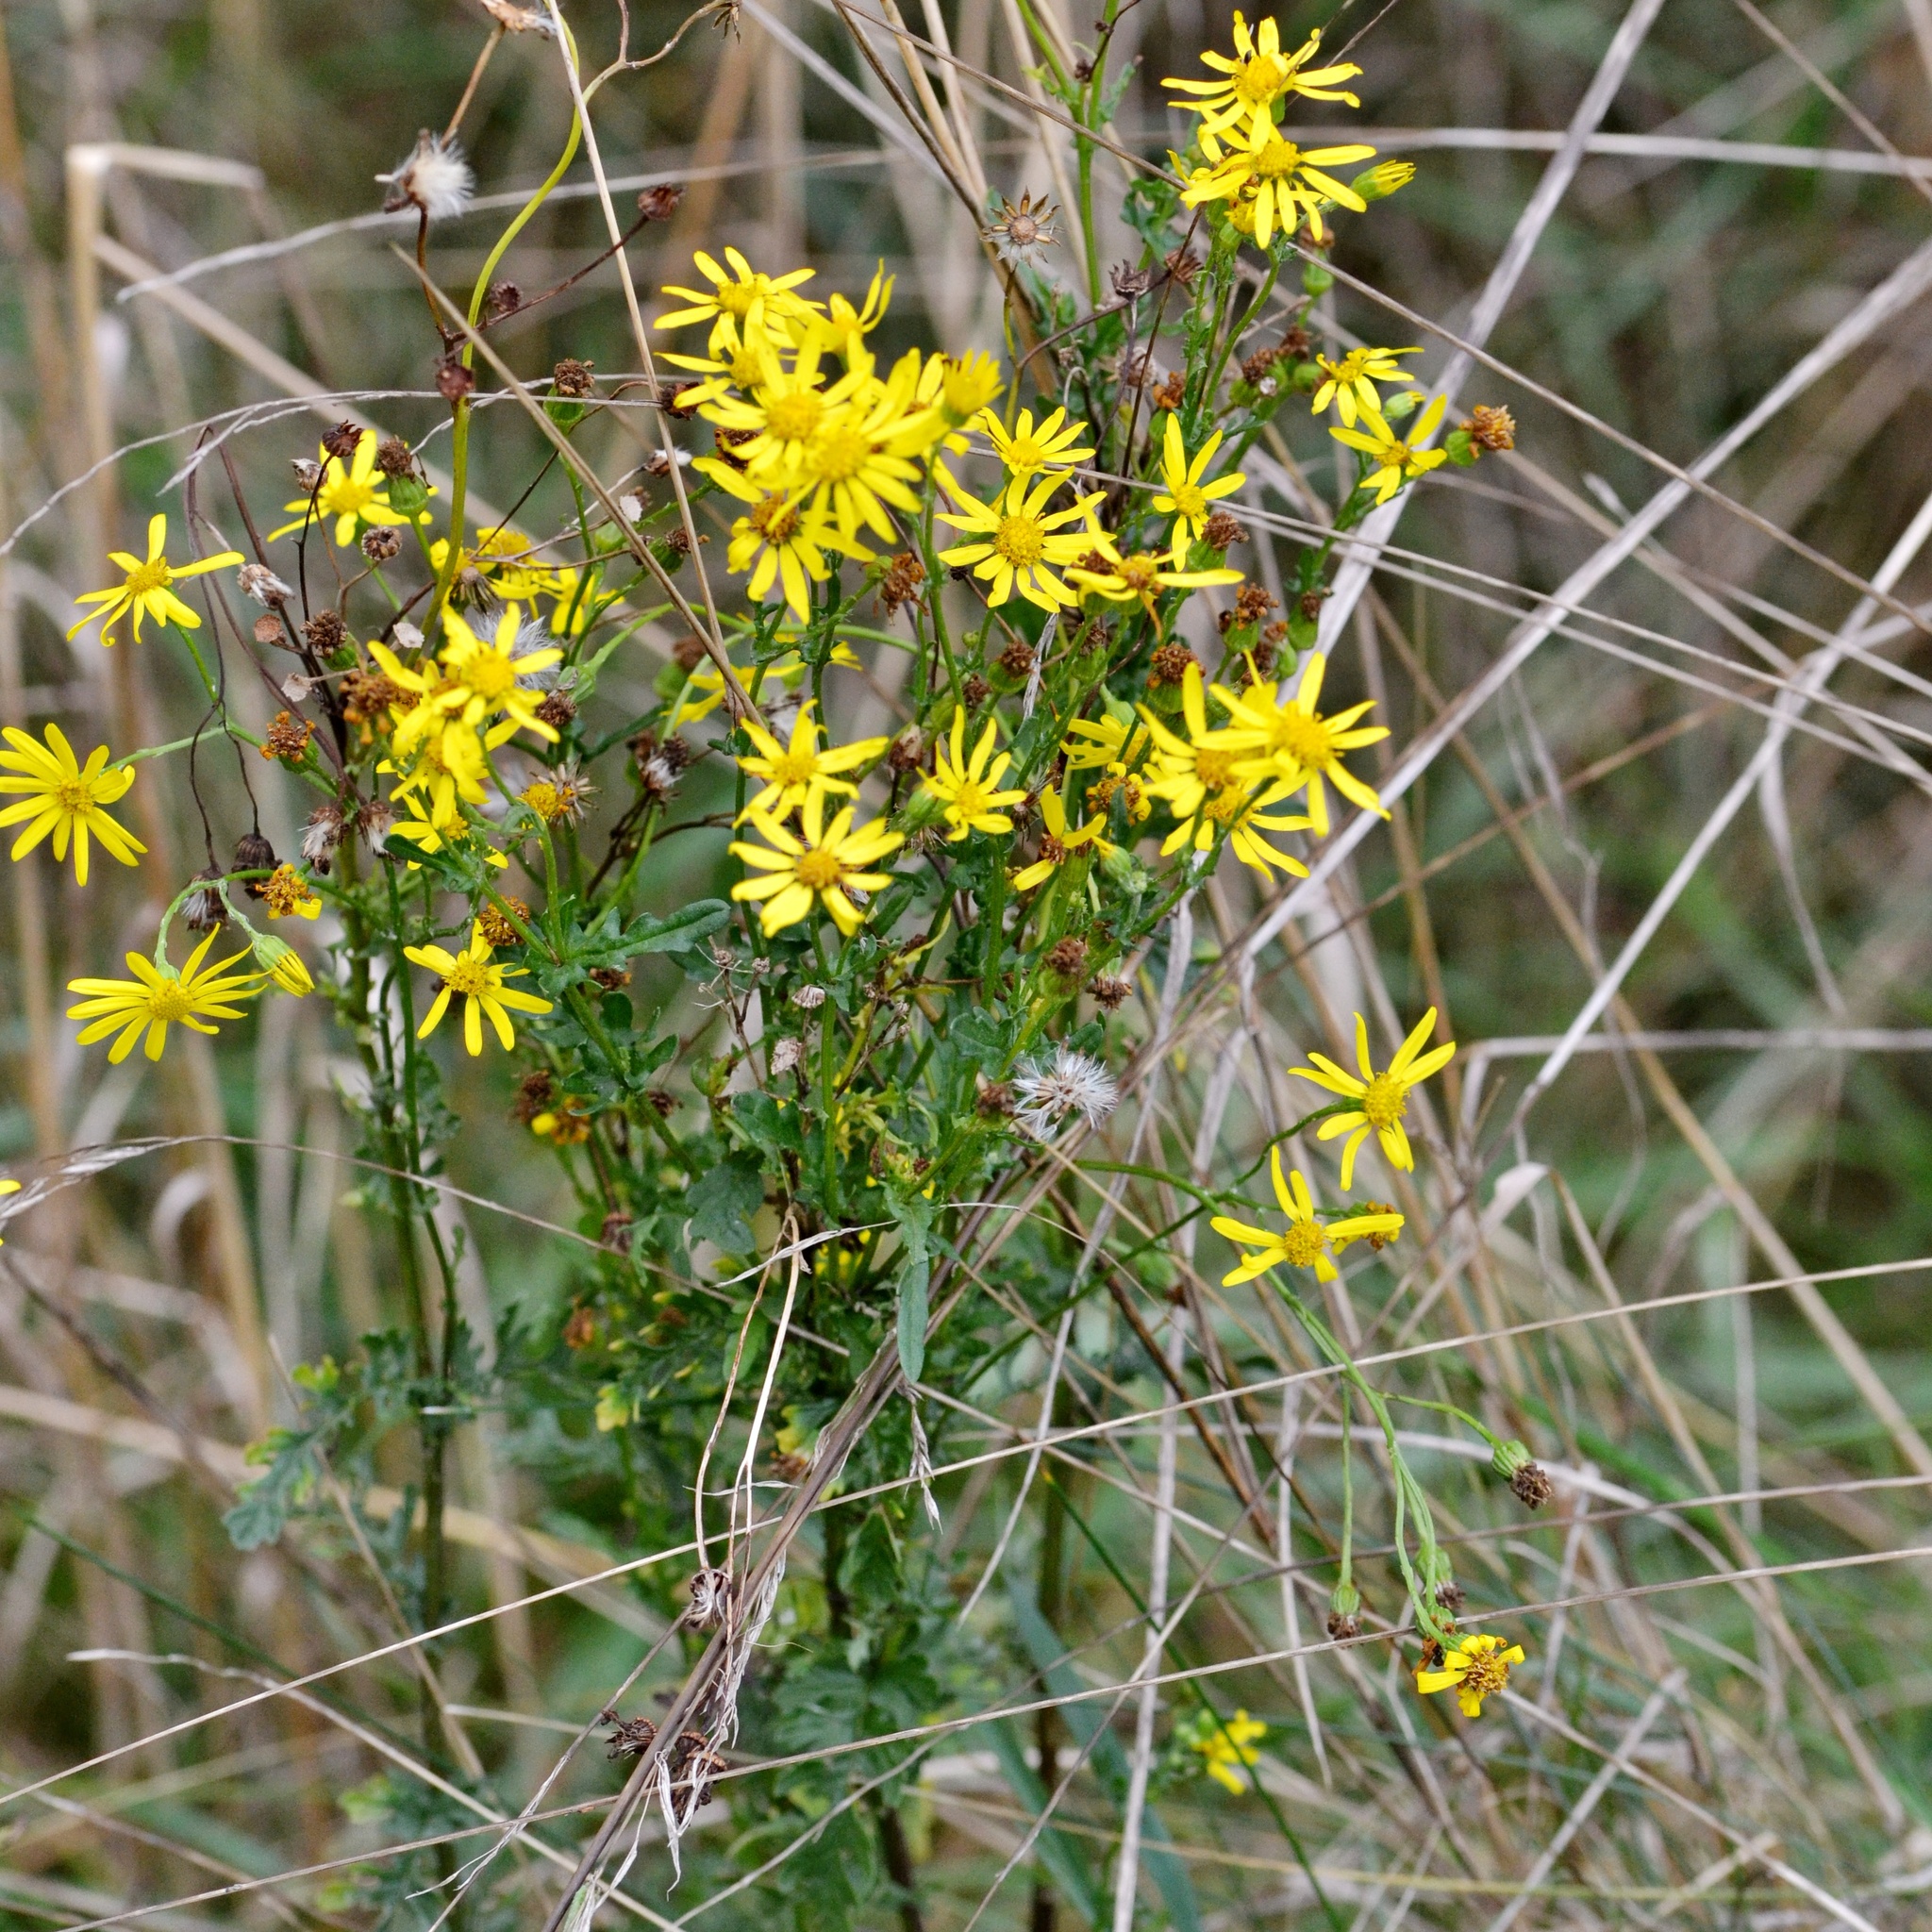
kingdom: Plantae
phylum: Tracheophyta
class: Magnoliopsida
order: Asterales
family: Asteraceae
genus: Jacobaea
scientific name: Jacobaea vulgaris
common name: Stinking willie
